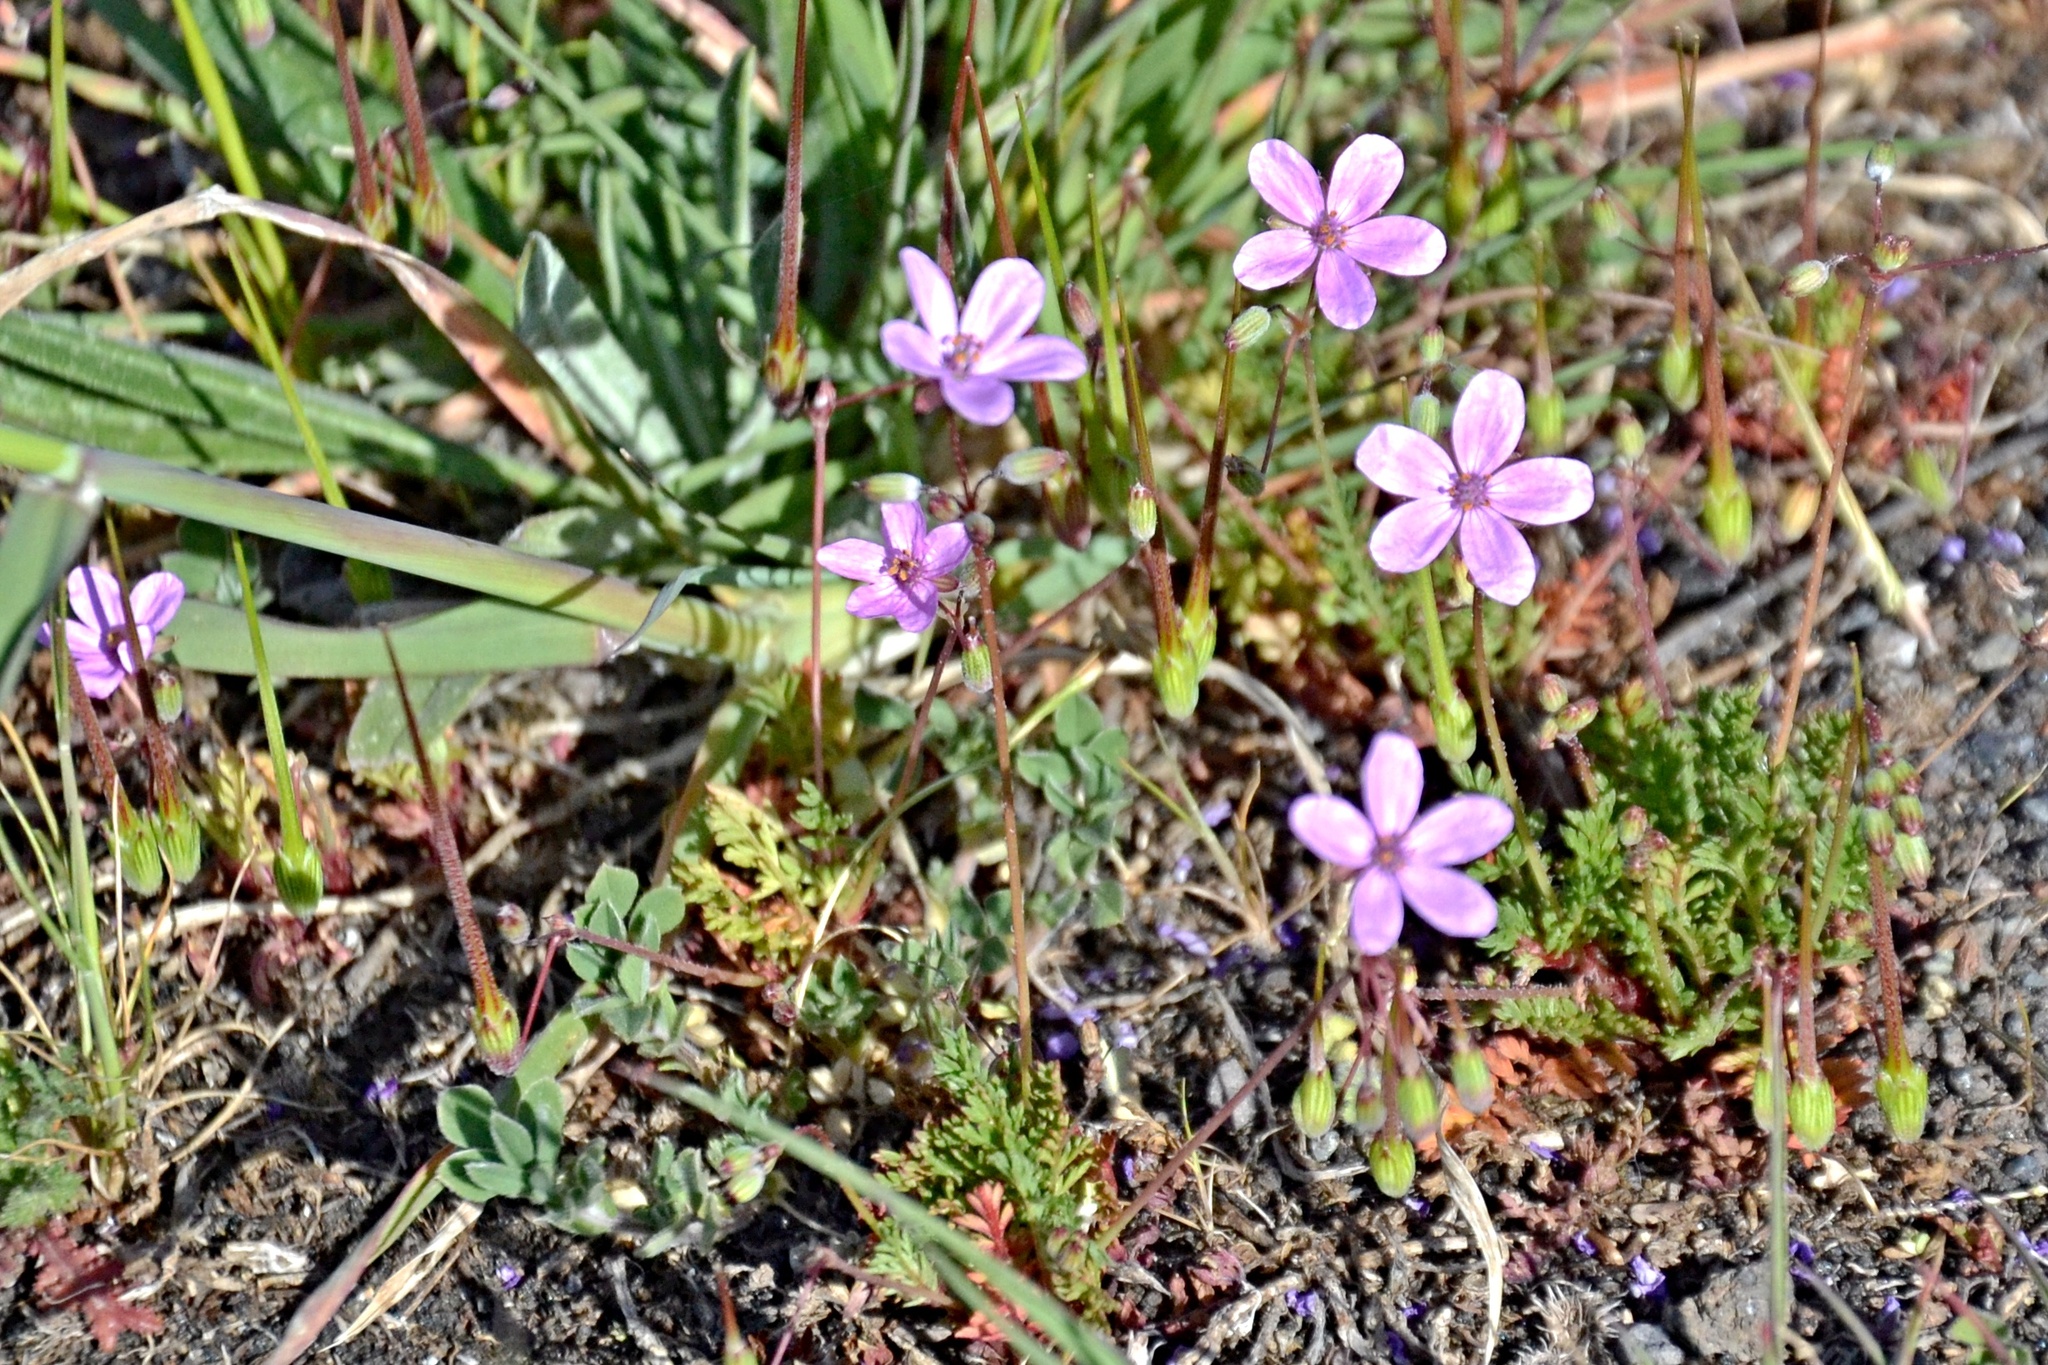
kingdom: Plantae
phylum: Tracheophyta
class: Magnoliopsida
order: Geraniales
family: Geraniaceae
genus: Erodium
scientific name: Erodium cicutarium
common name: Common stork's-bill
